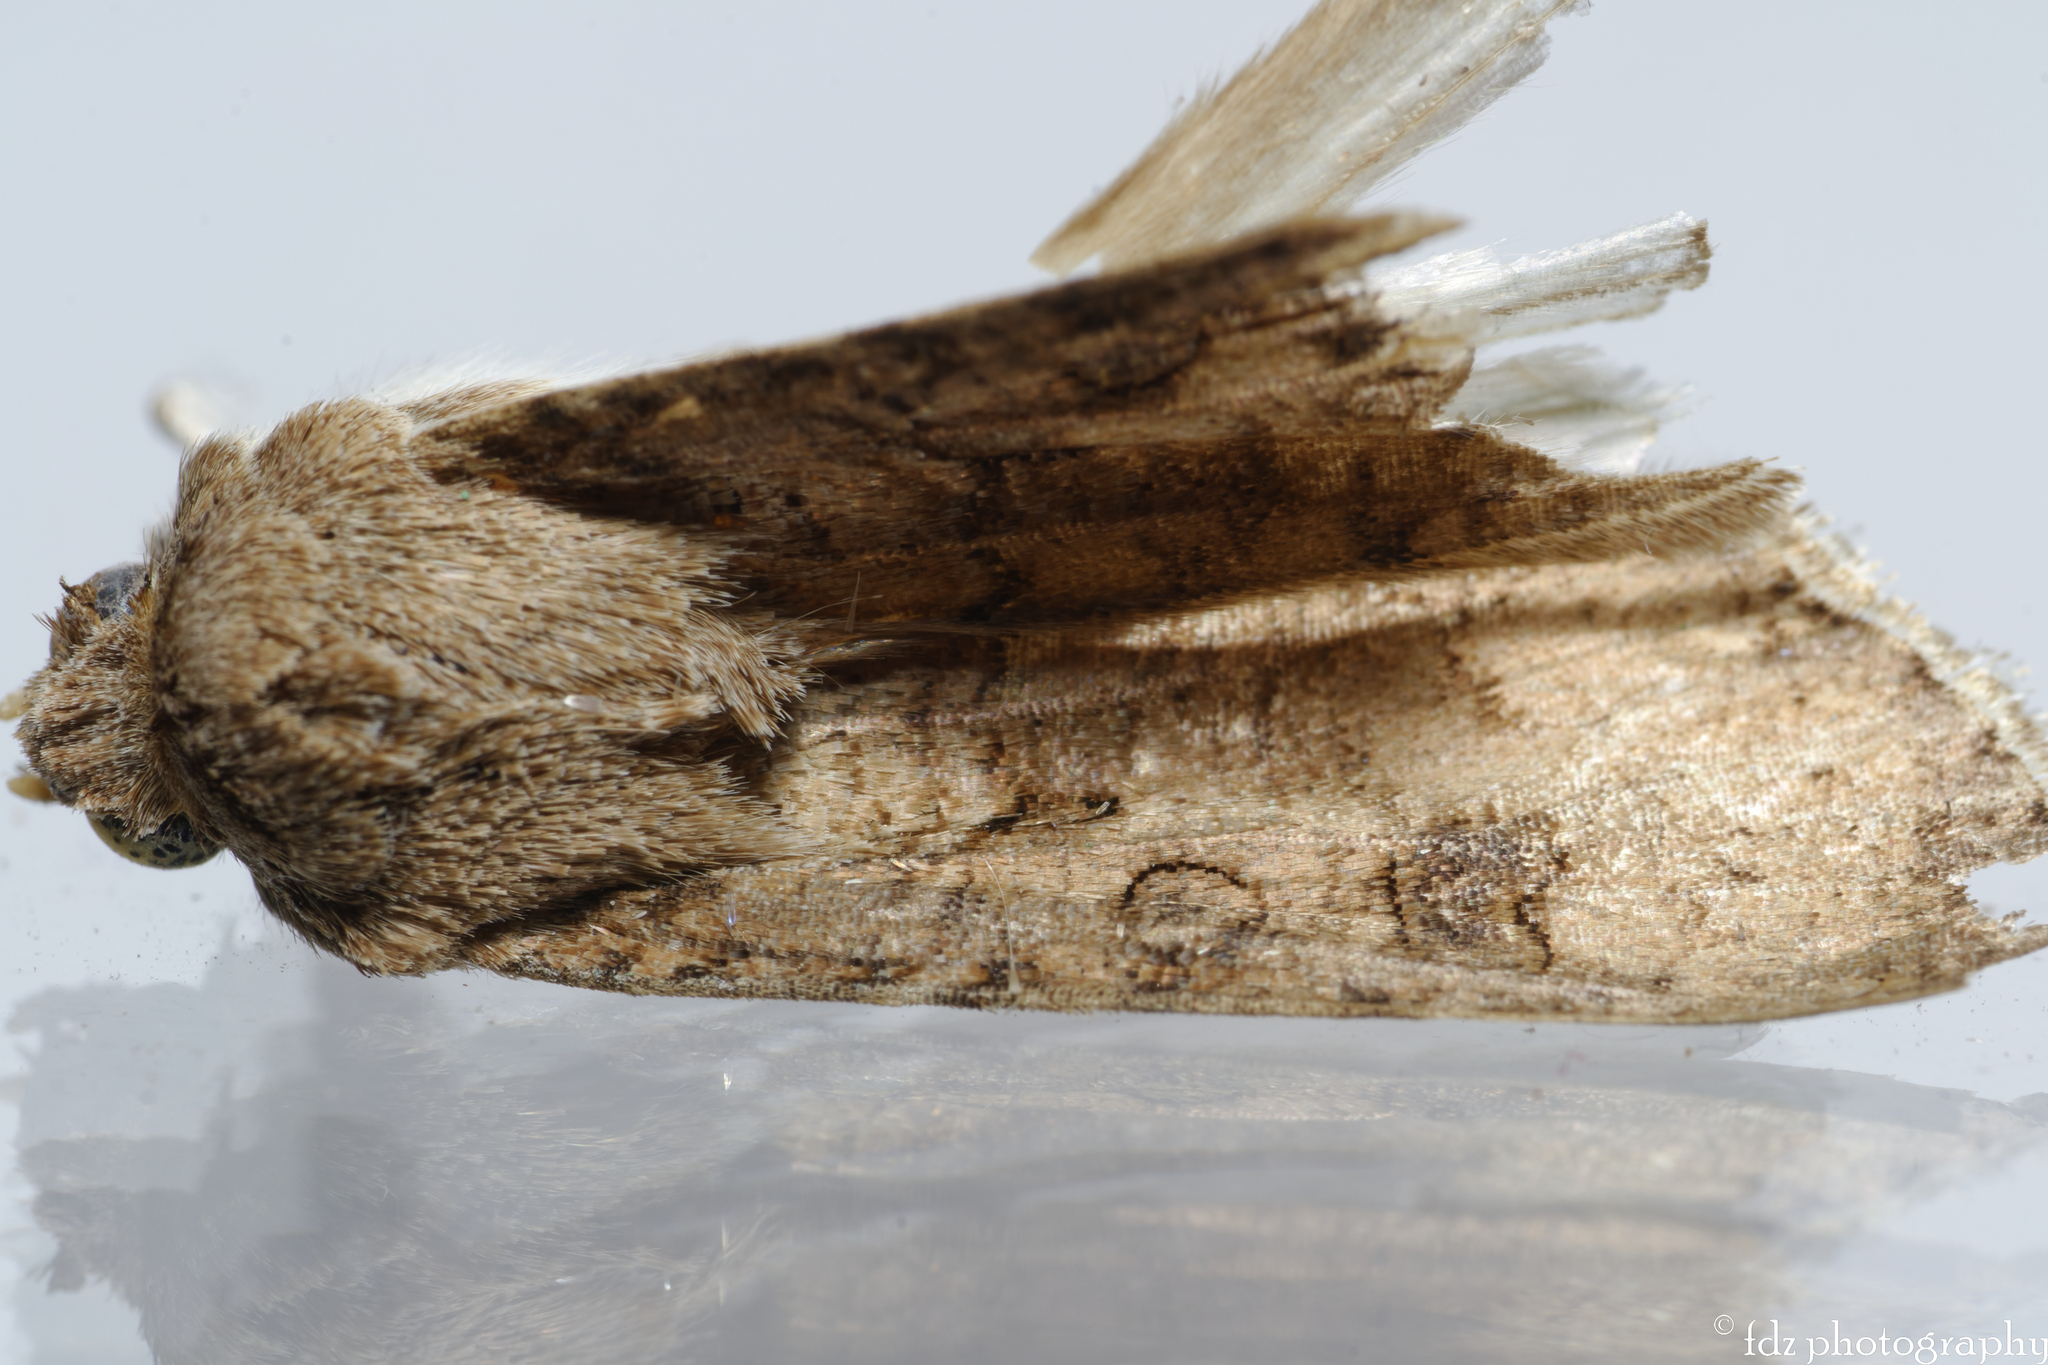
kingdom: Animalia
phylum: Arthropoda
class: Insecta
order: Lepidoptera
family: Noctuidae
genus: Agrotis
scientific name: Agrotis segetum
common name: Turnip moth
